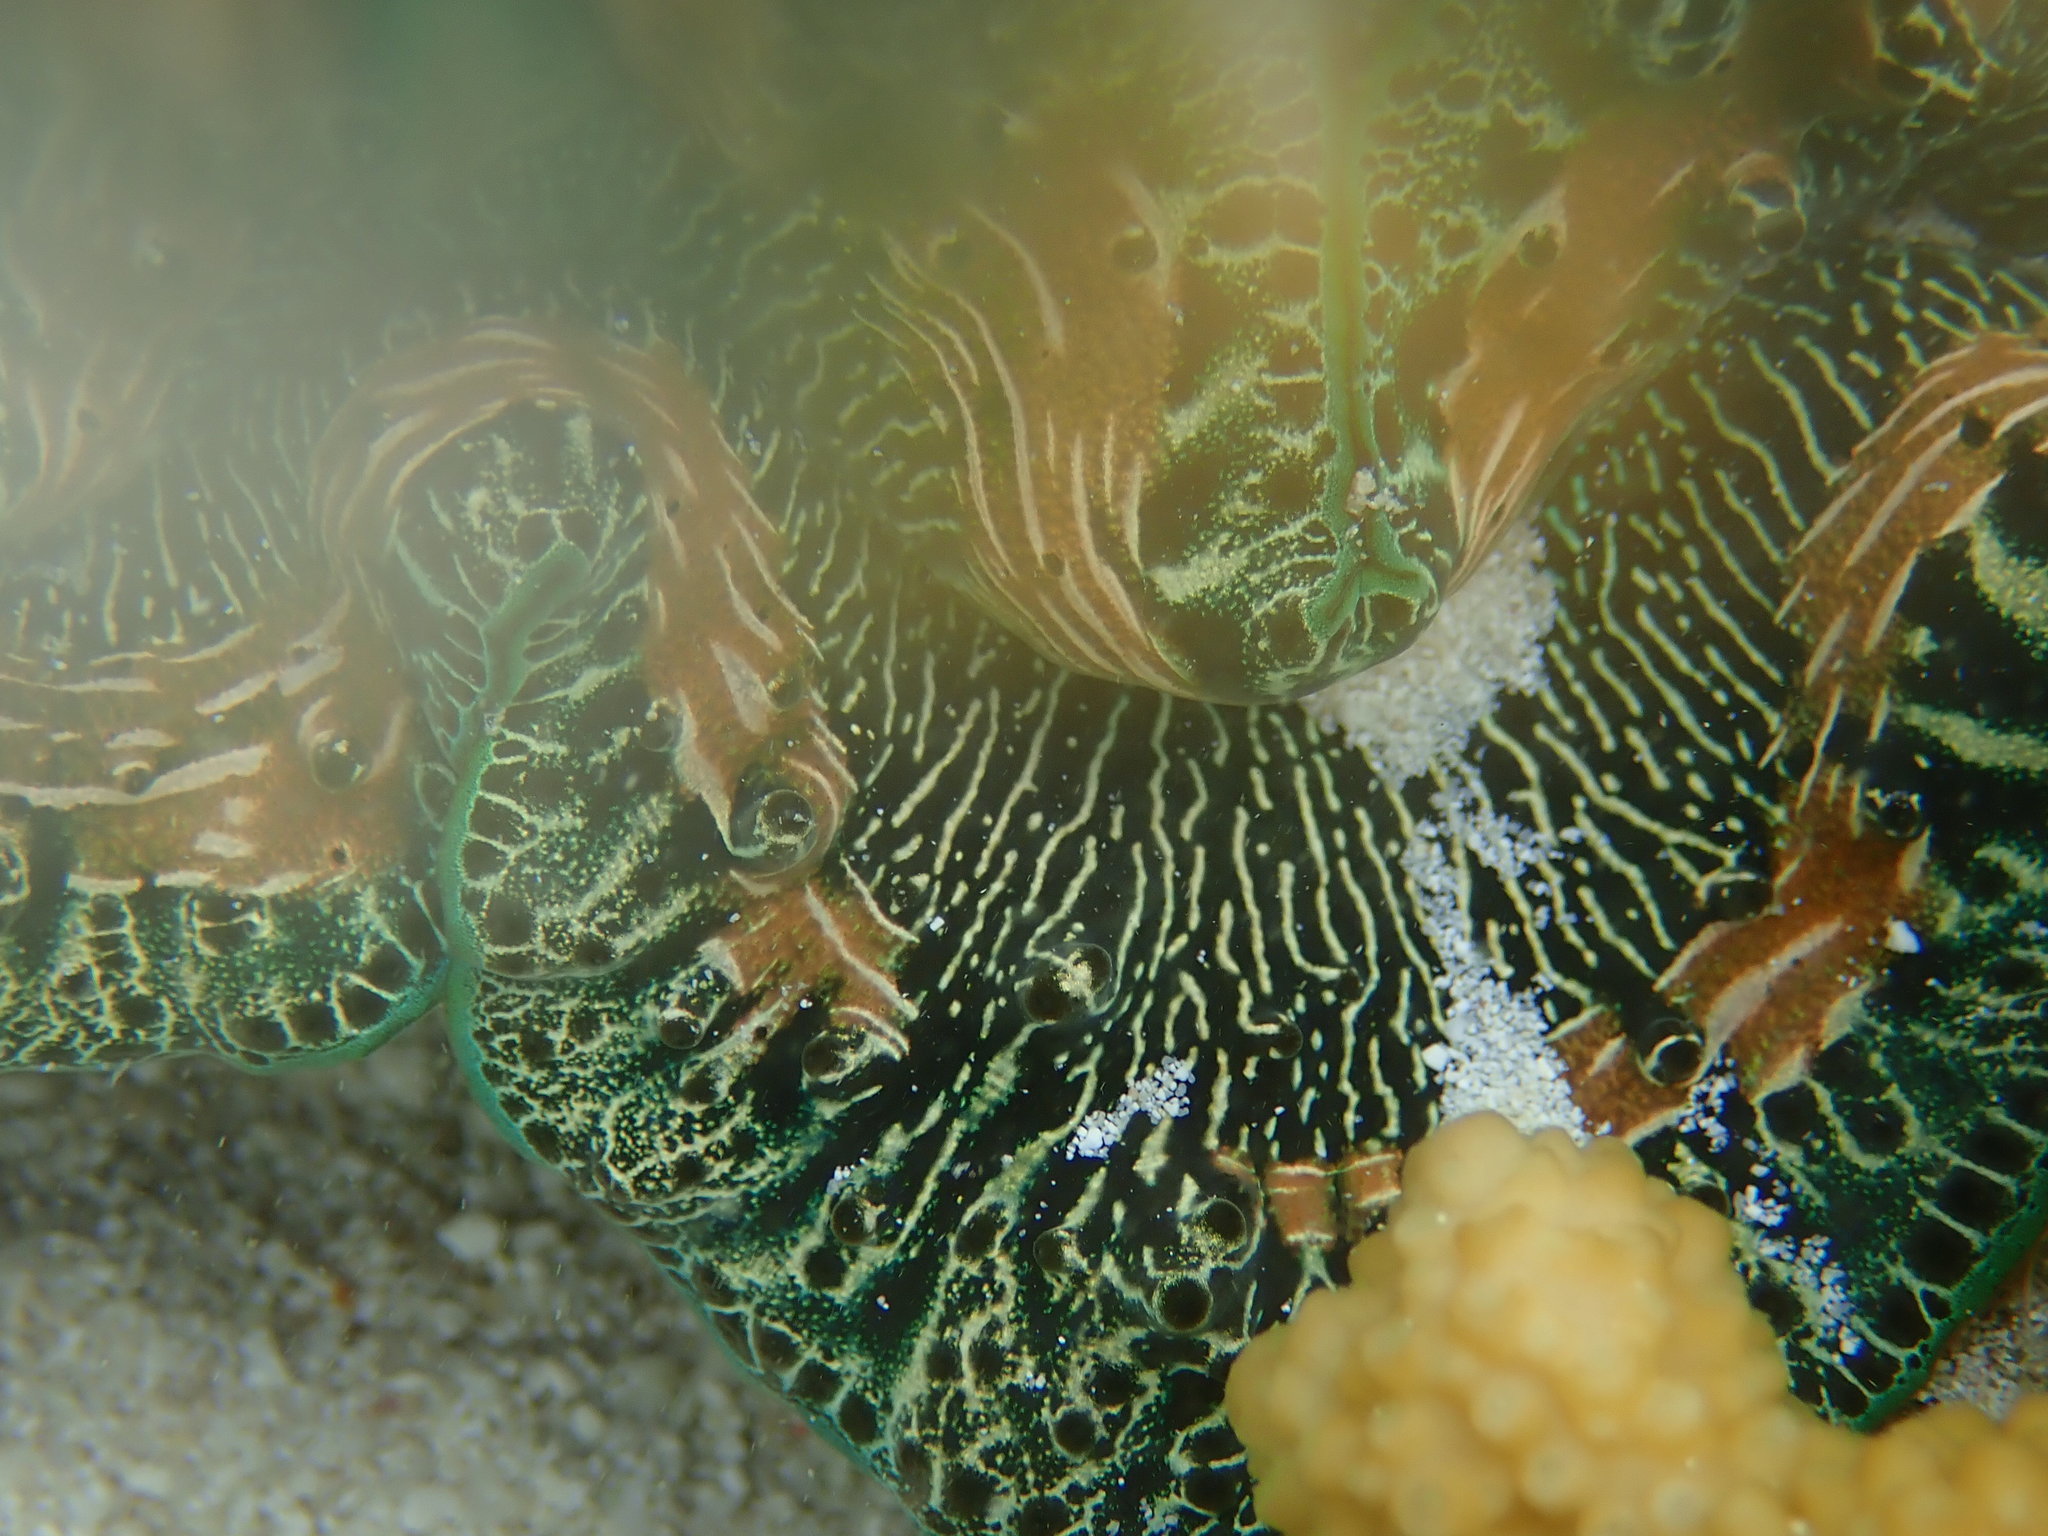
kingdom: Animalia
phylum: Mollusca
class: Bivalvia
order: Cardiida
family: Cardiidae
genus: Tridacna
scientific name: Tridacna maxima
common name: Small giant clam
